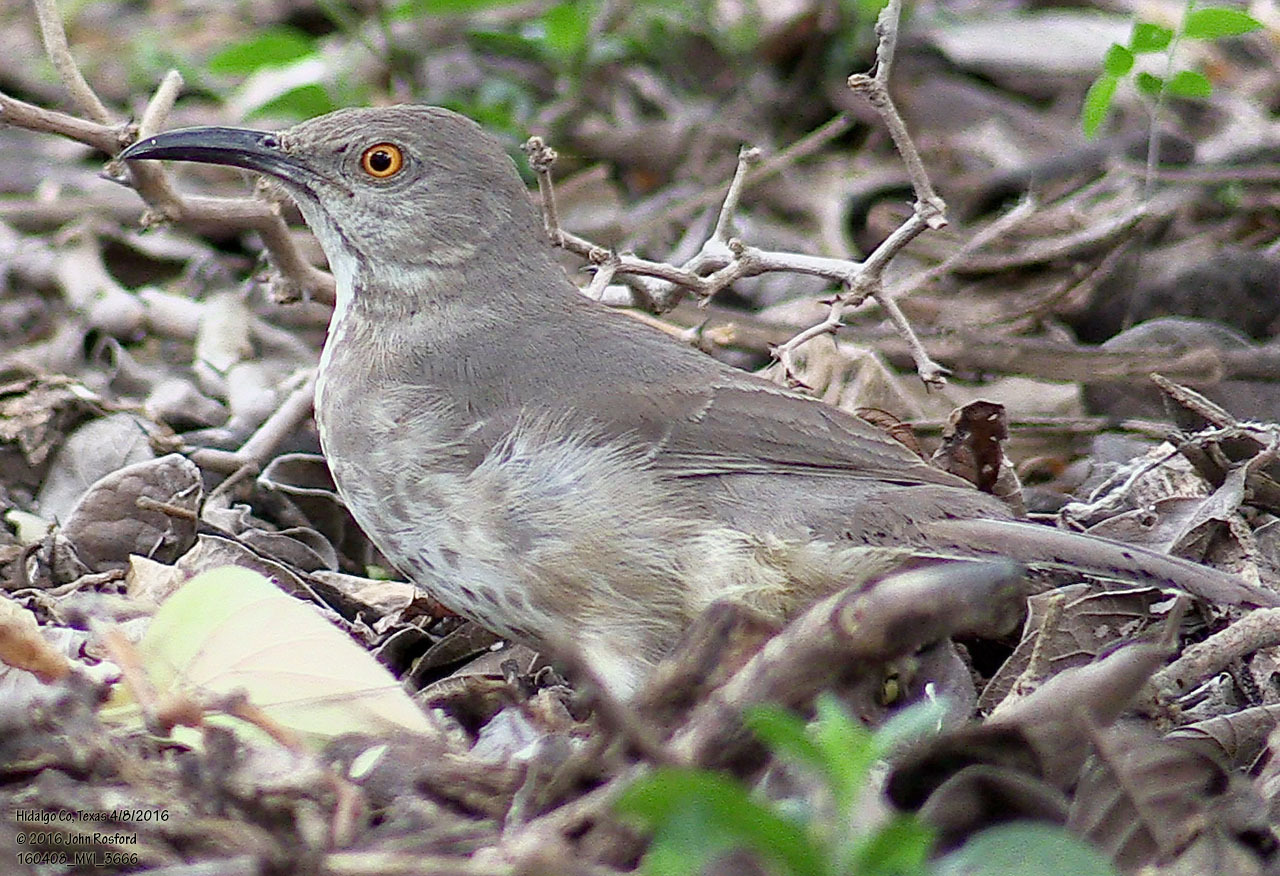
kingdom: Animalia
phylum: Chordata
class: Aves
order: Passeriformes
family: Mimidae
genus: Toxostoma
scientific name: Toxostoma curvirostre
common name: Curve-billed thrasher
